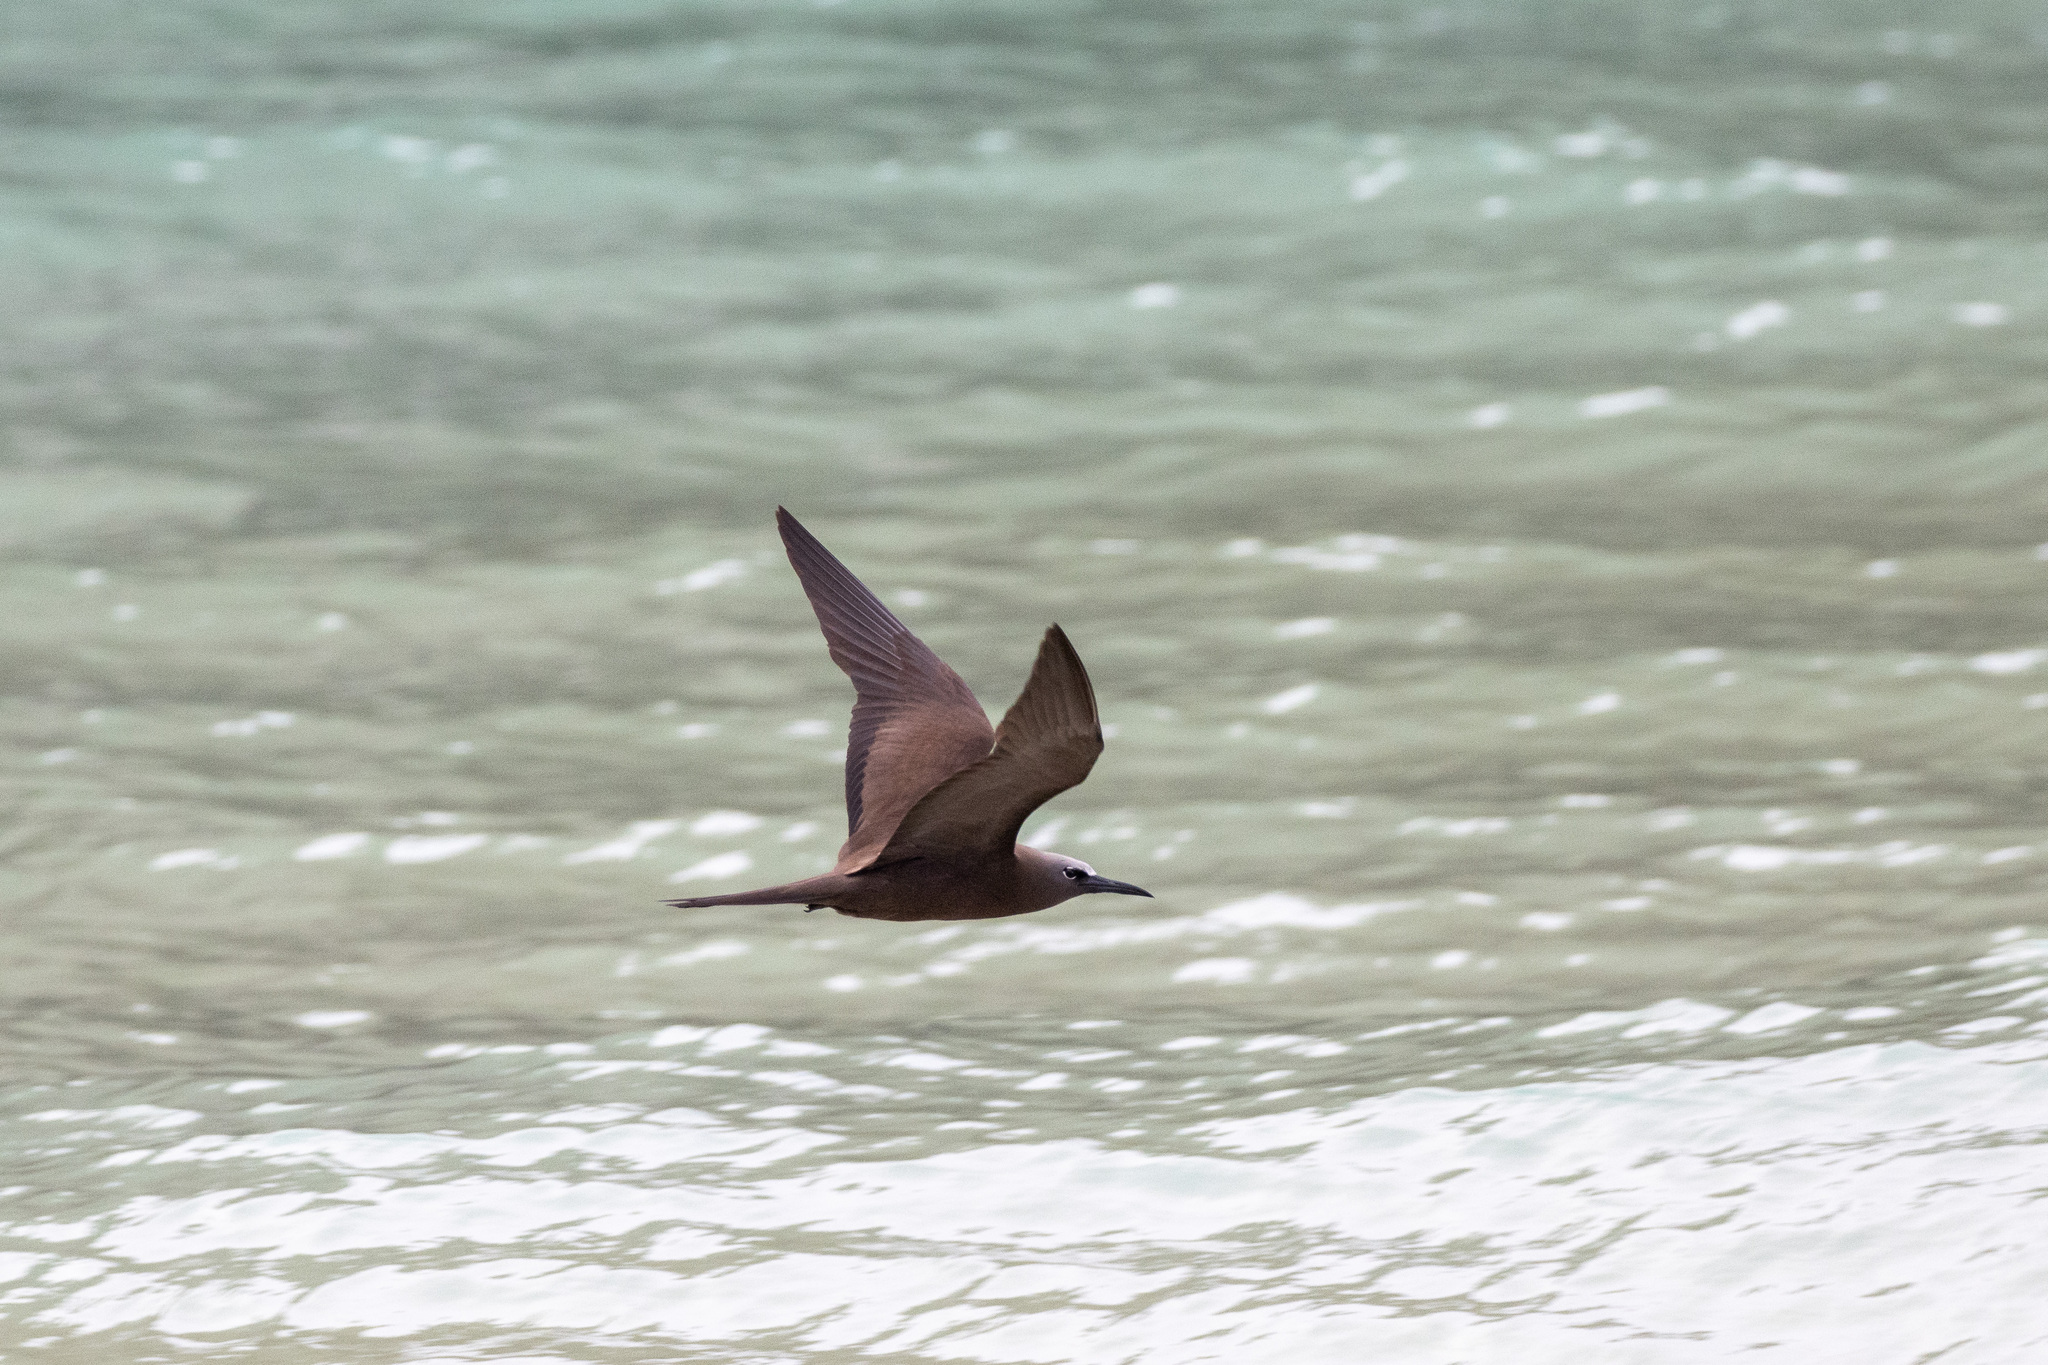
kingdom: Animalia
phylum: Chordata
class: Aves
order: Charadriiformes
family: Laridae
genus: Anous
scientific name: Anous stolidus
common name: Brown noddy
